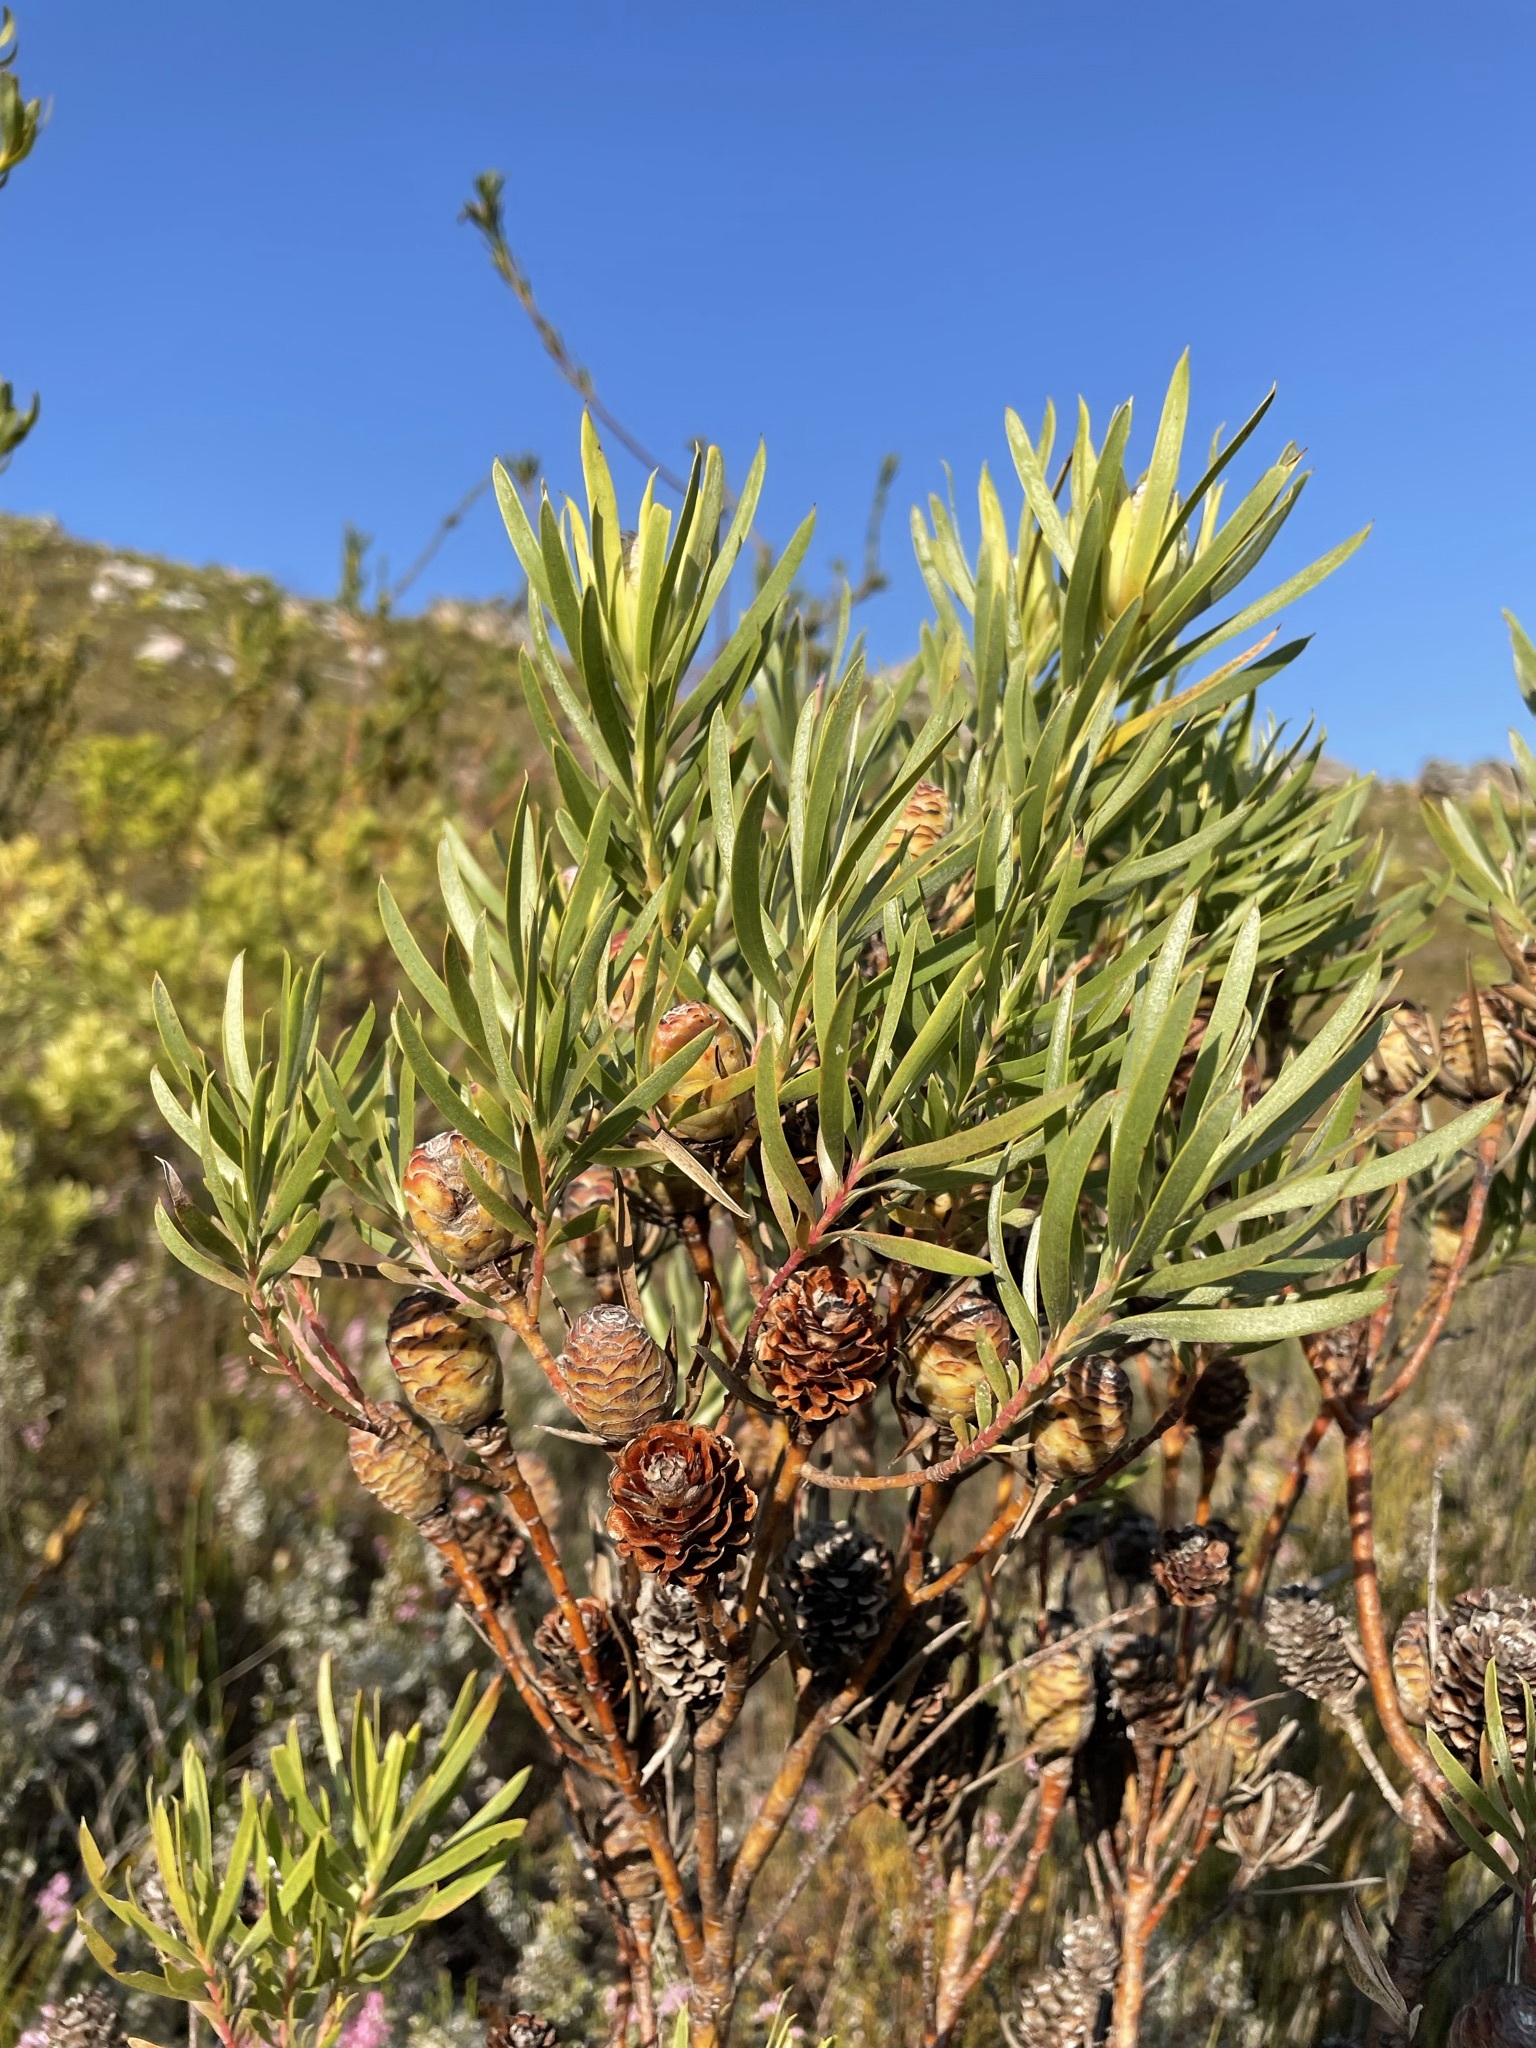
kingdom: Plantae
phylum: Tracheophyta
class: Magnoliopsida
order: Proteales
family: Proteaceae
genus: Leucadendron
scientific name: Leucadendron xanthoconus
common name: Sickle-leaf conebush
